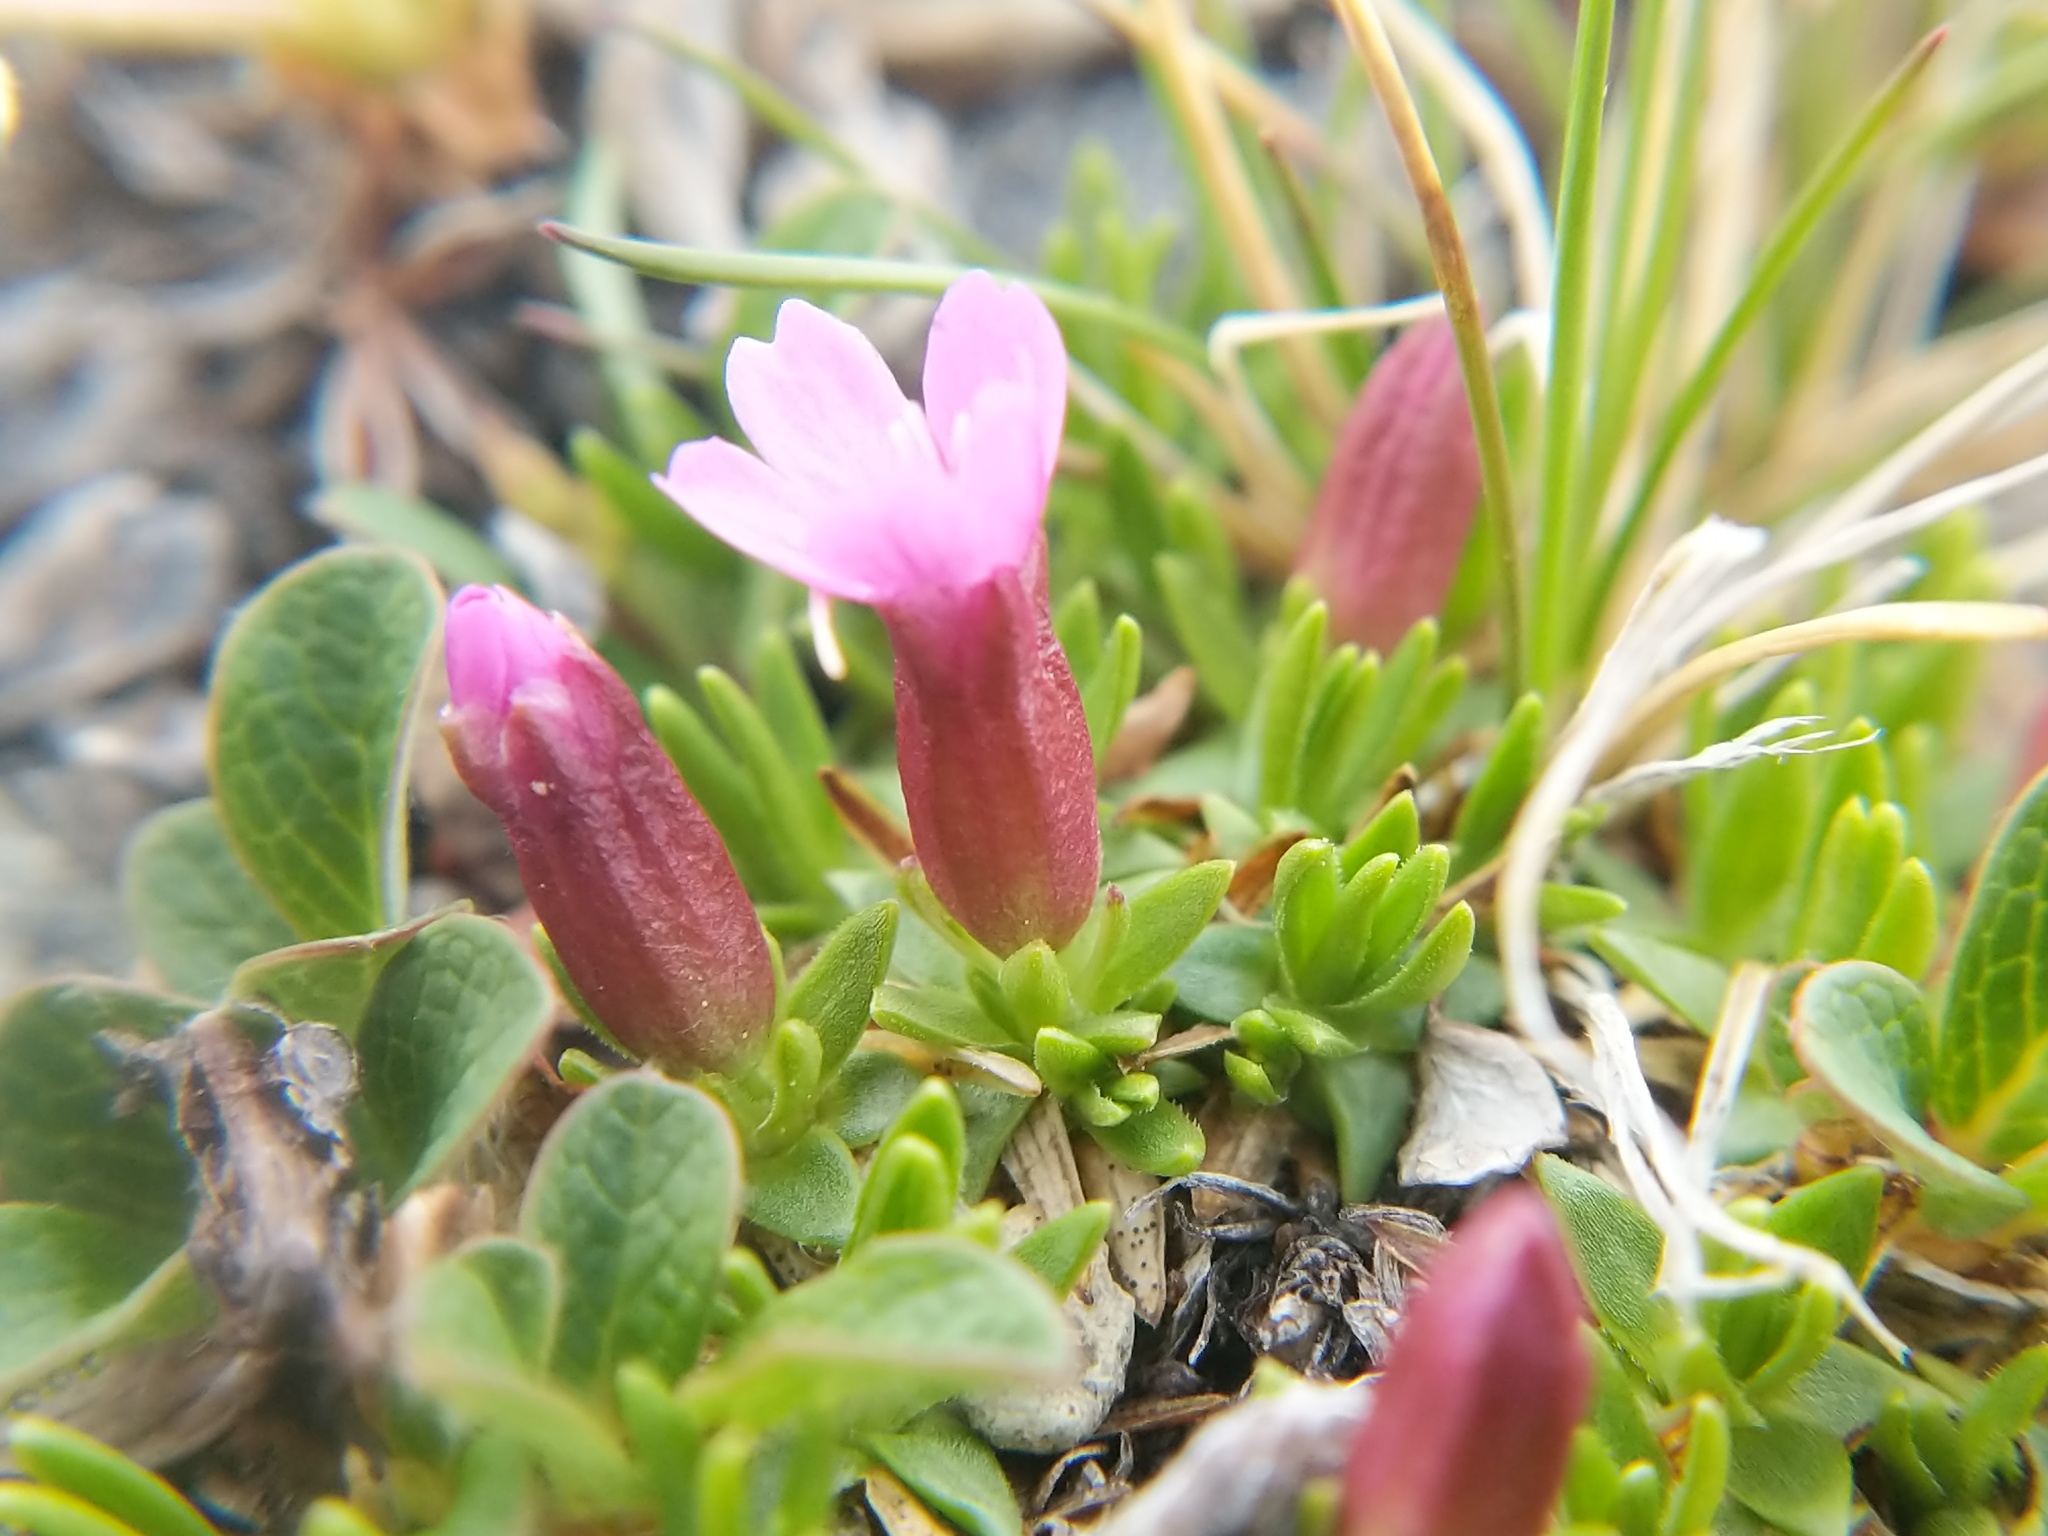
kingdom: Plantae
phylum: Tracheophyta
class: Magnoliopsida
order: Caryophyllales
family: Caryophyllaceae
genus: Silene
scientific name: Silene acaulis
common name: Moss campion
